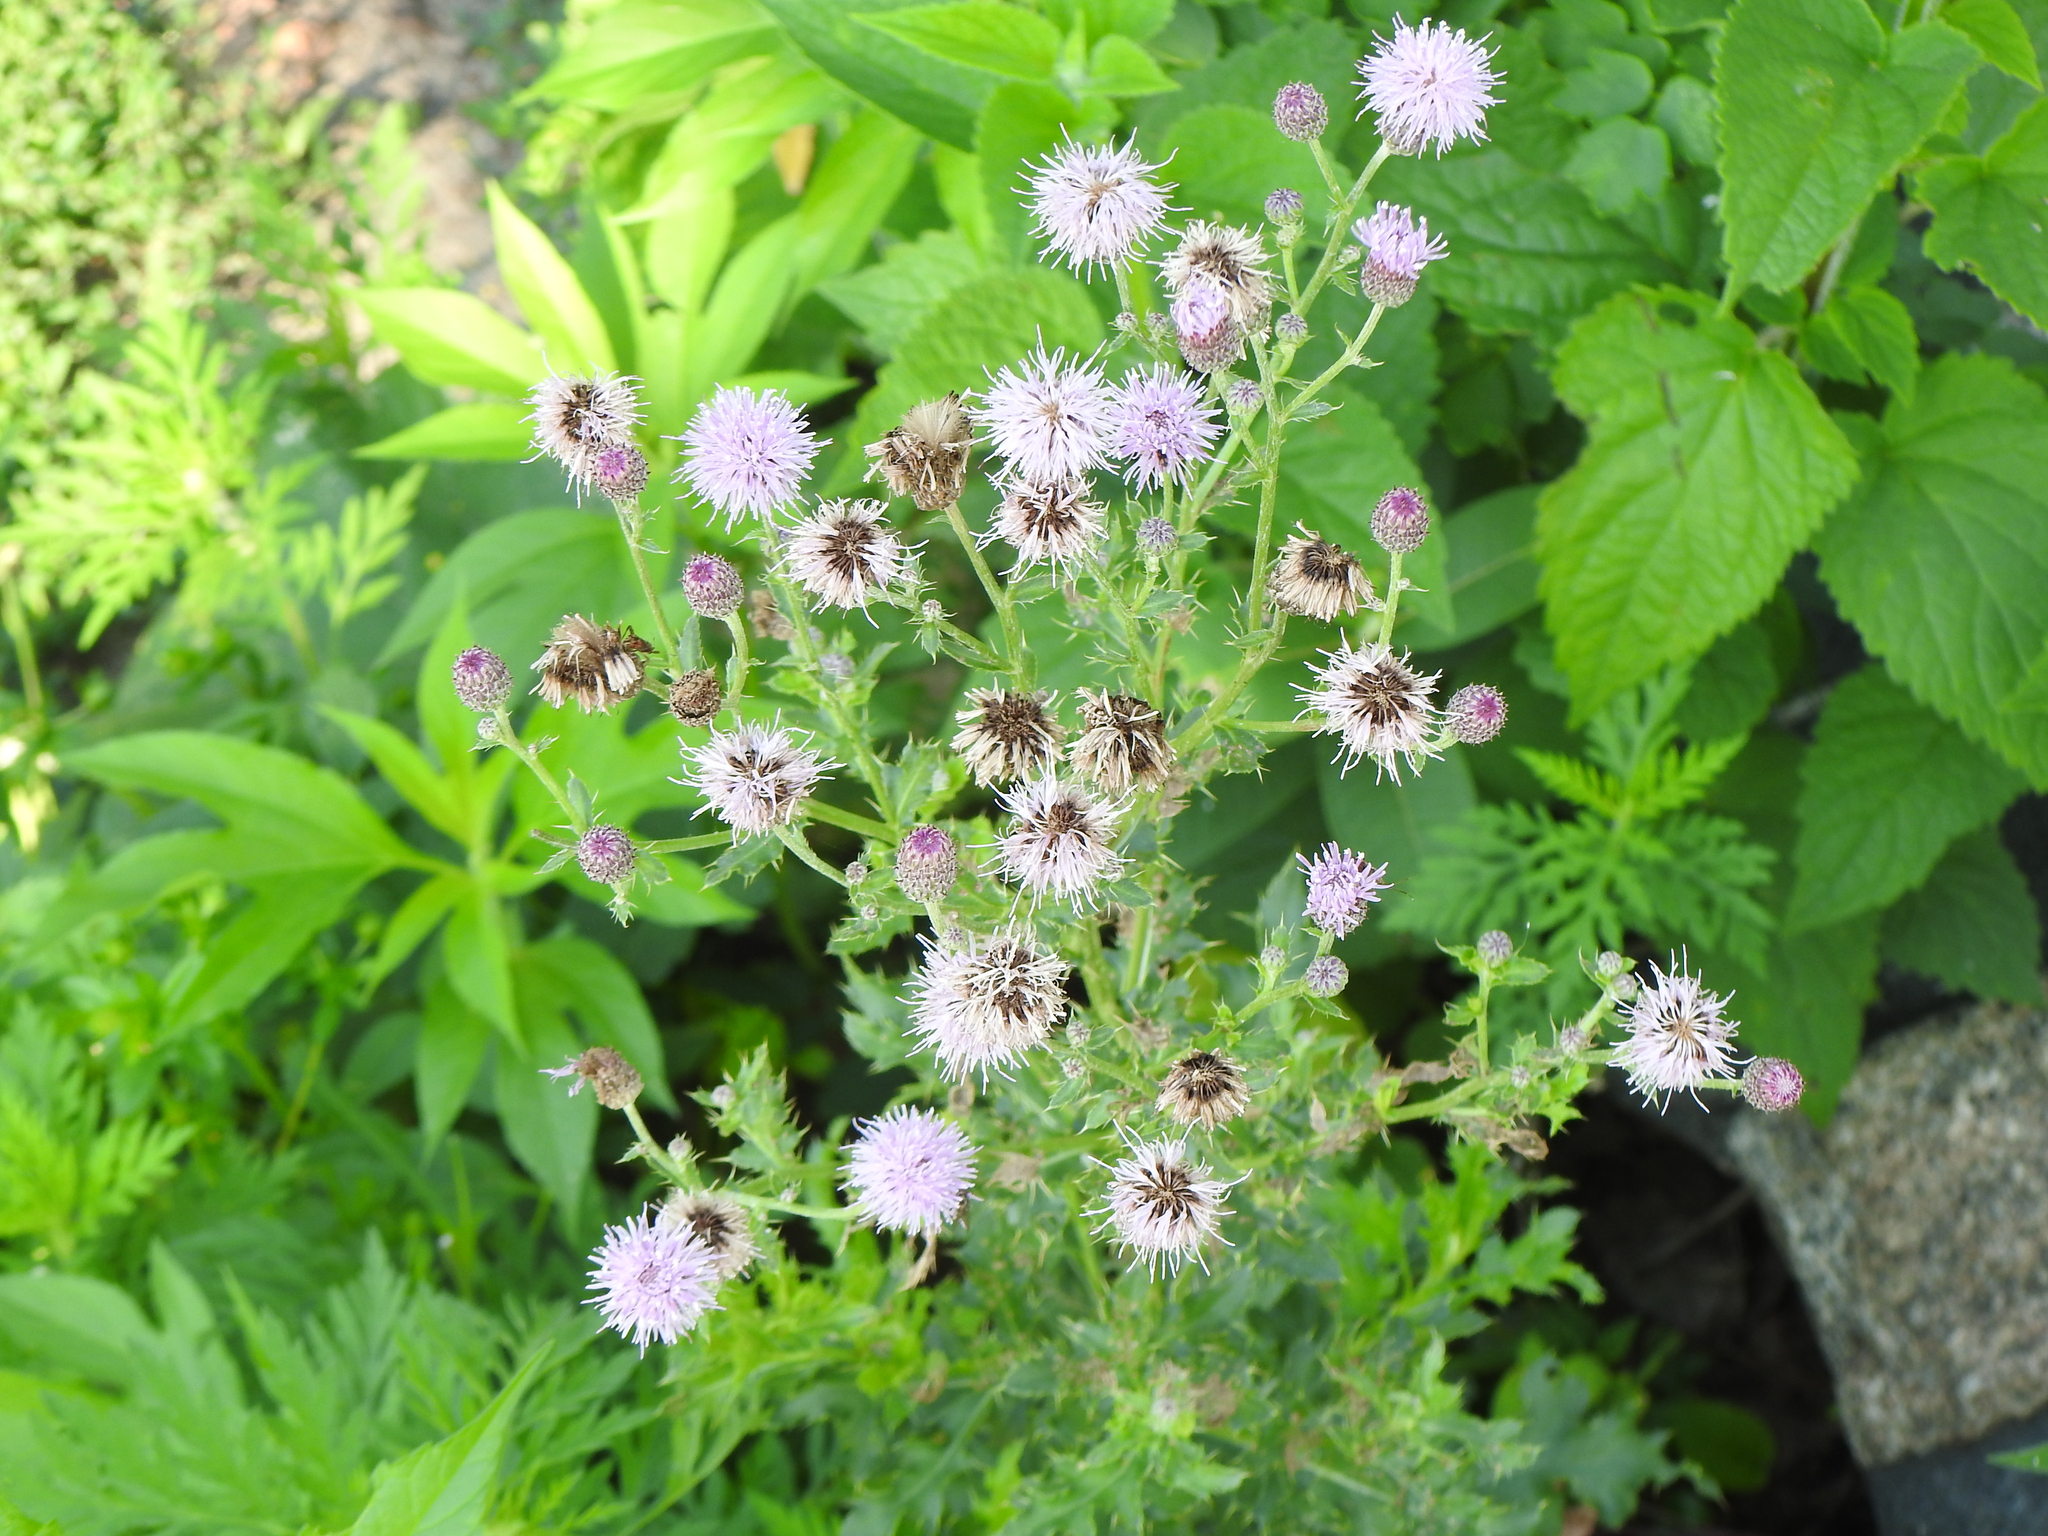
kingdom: Plantae
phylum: Tracheophyta
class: Magnoliopsida
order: Asterales
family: Asteraceae
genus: Cirsium
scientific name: Cirsium arvense
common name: Creeping thistle
